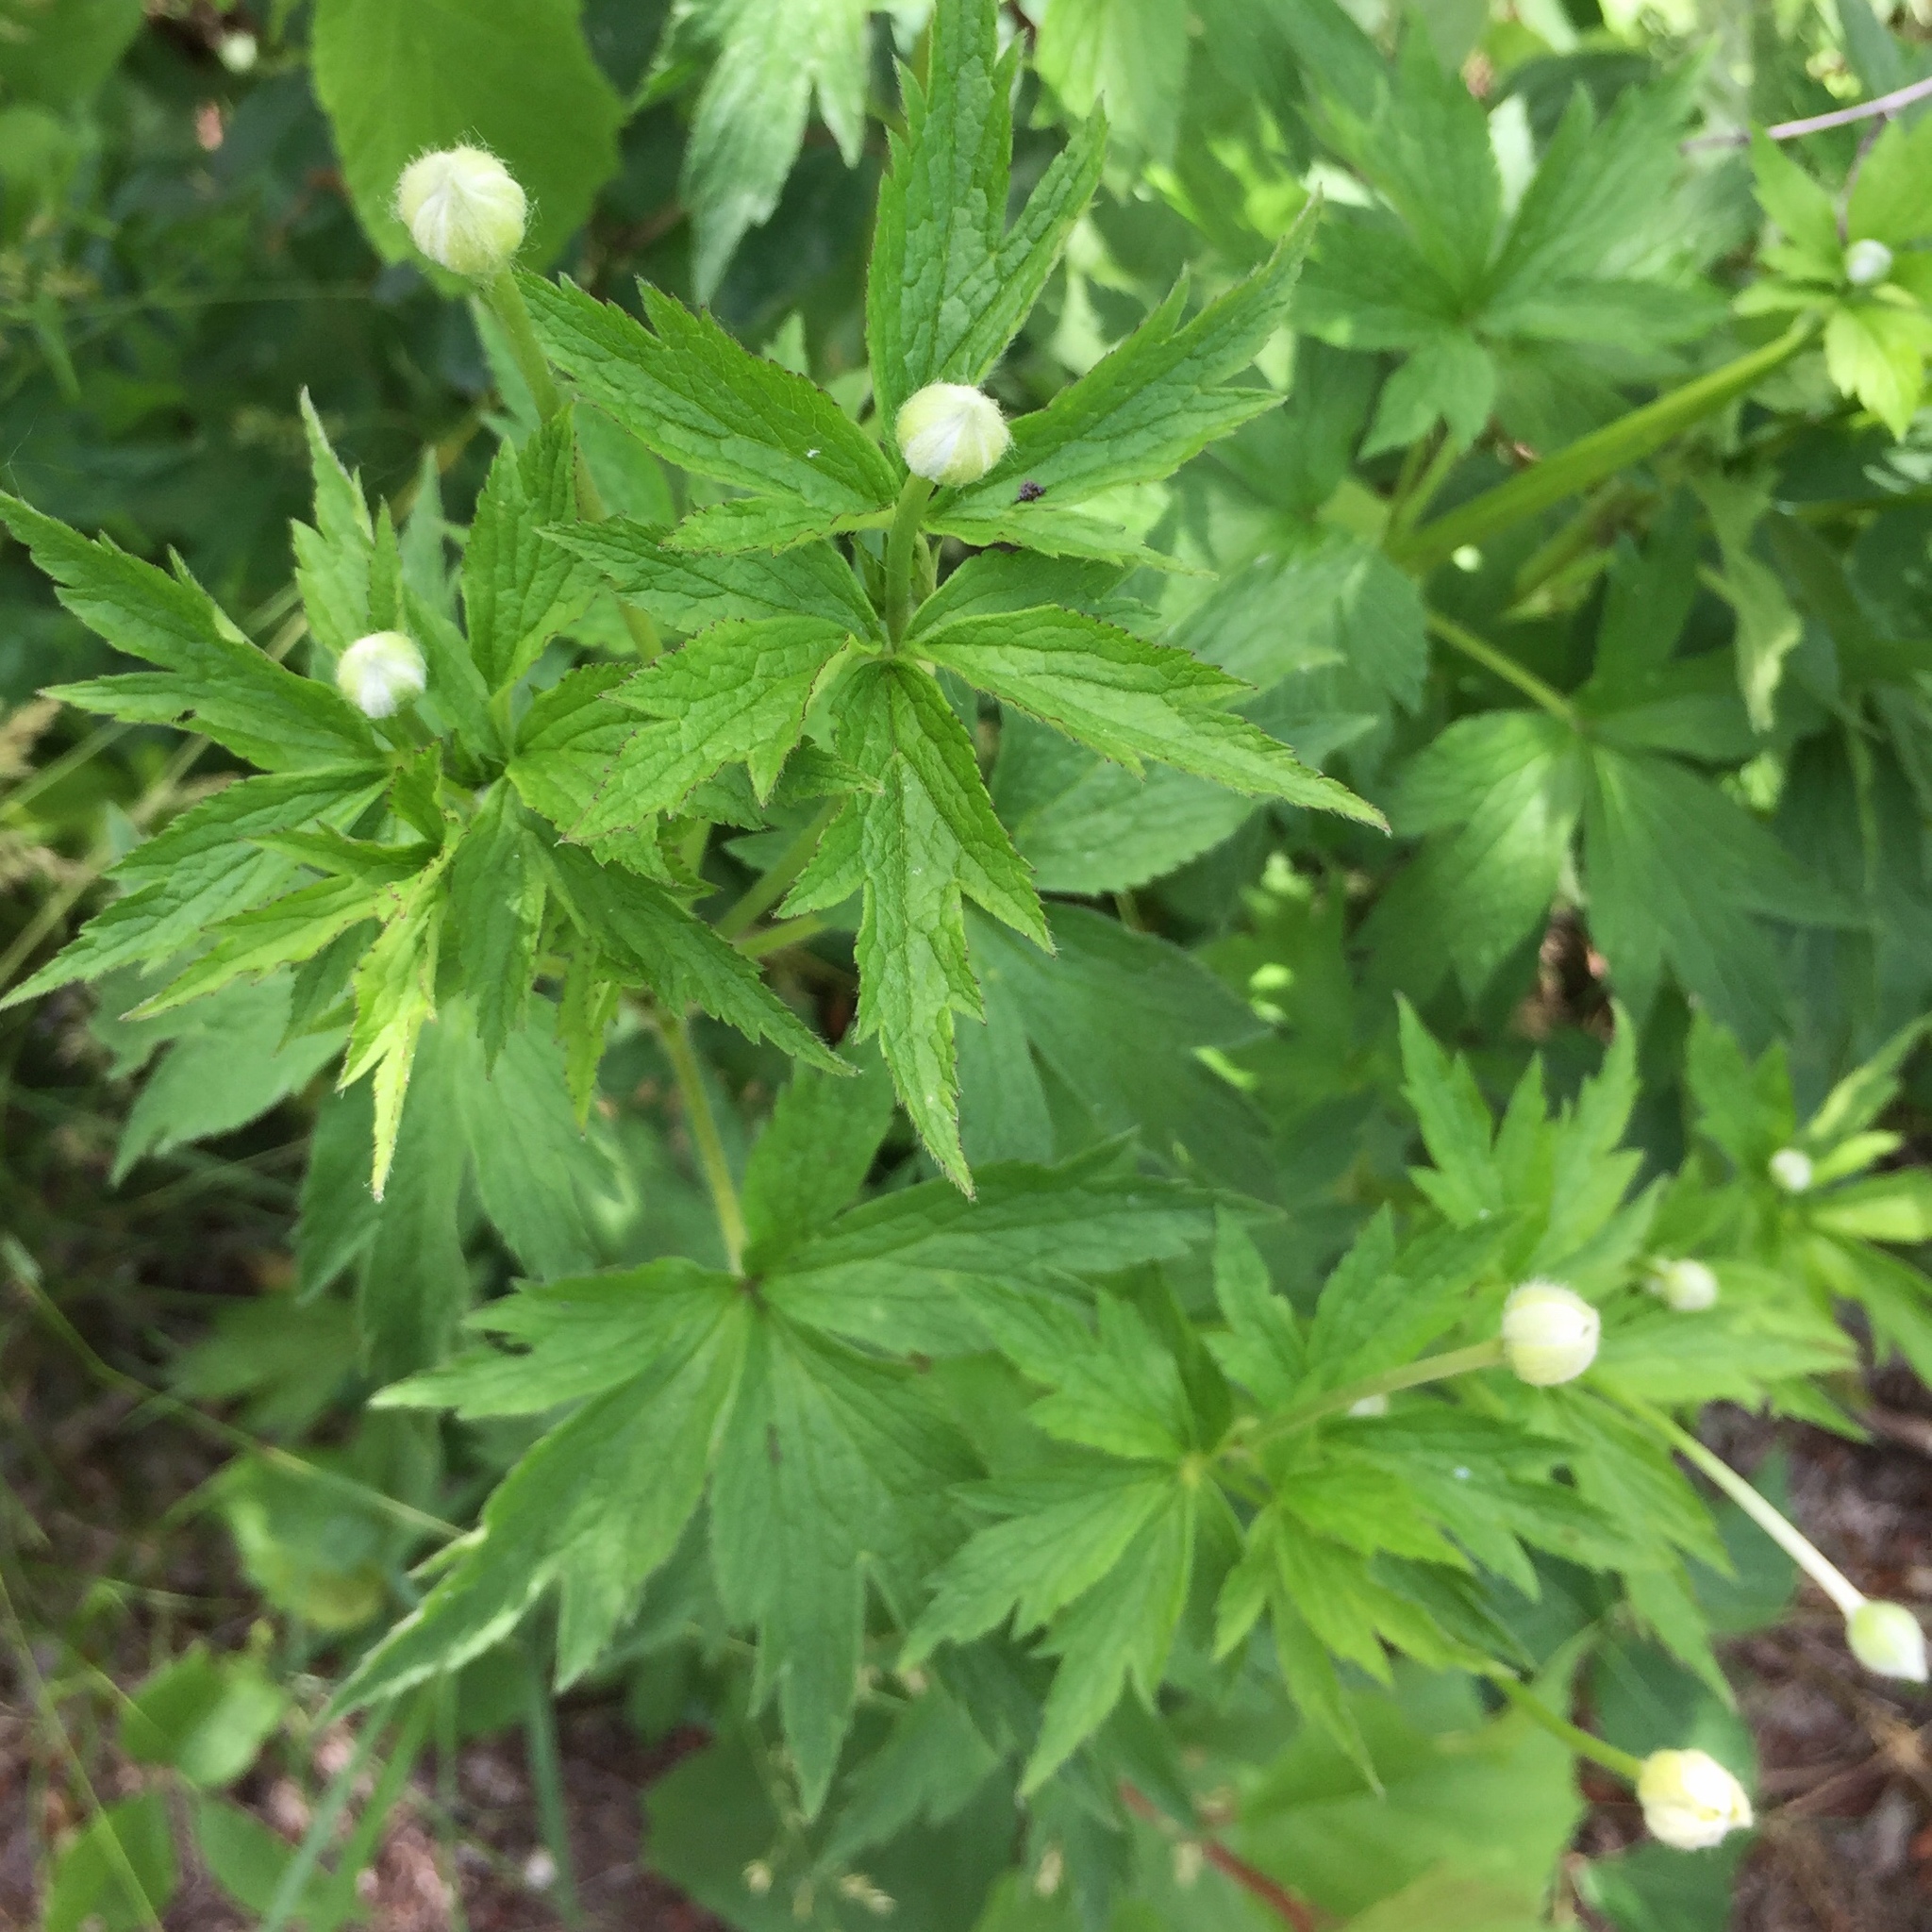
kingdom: Plantae
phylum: Tracheophyta
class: Magnoliopsida
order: Ranunculales
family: Ranunculaceae
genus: Anemone
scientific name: Anemone virginiana
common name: Tall anemone
